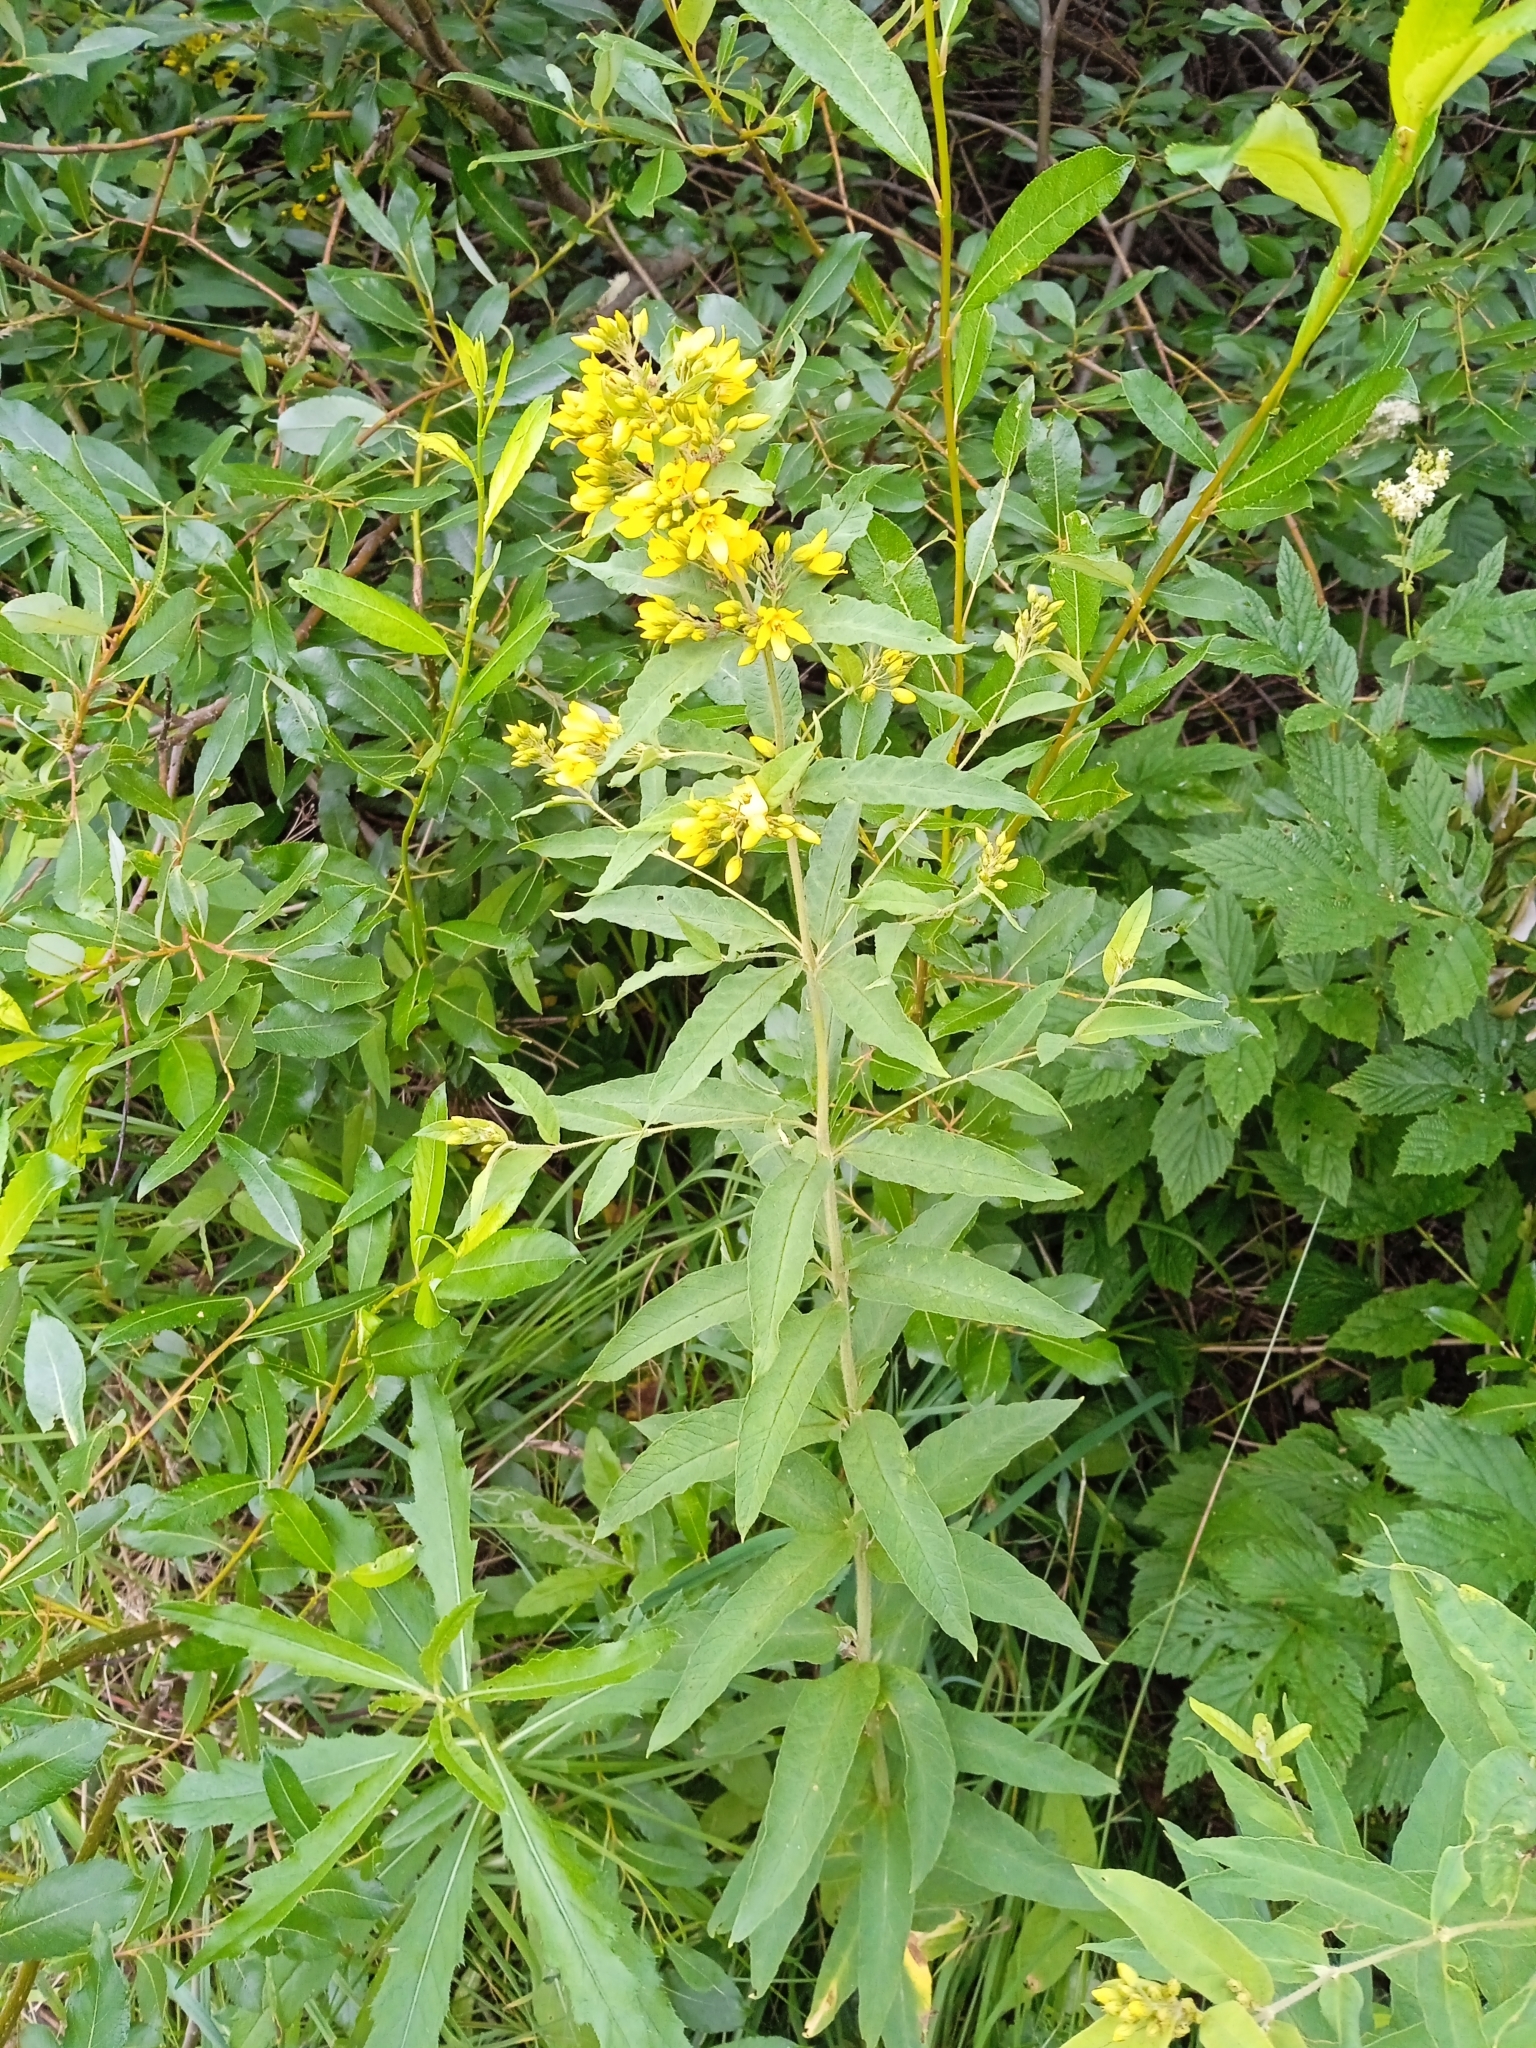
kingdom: Plantae
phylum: Tracheophyta
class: Magnoliopsida
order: Ericales
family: Primulaceae
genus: Lysimachia
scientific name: Lysimachia vulgaris
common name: Yellow loosestrife
